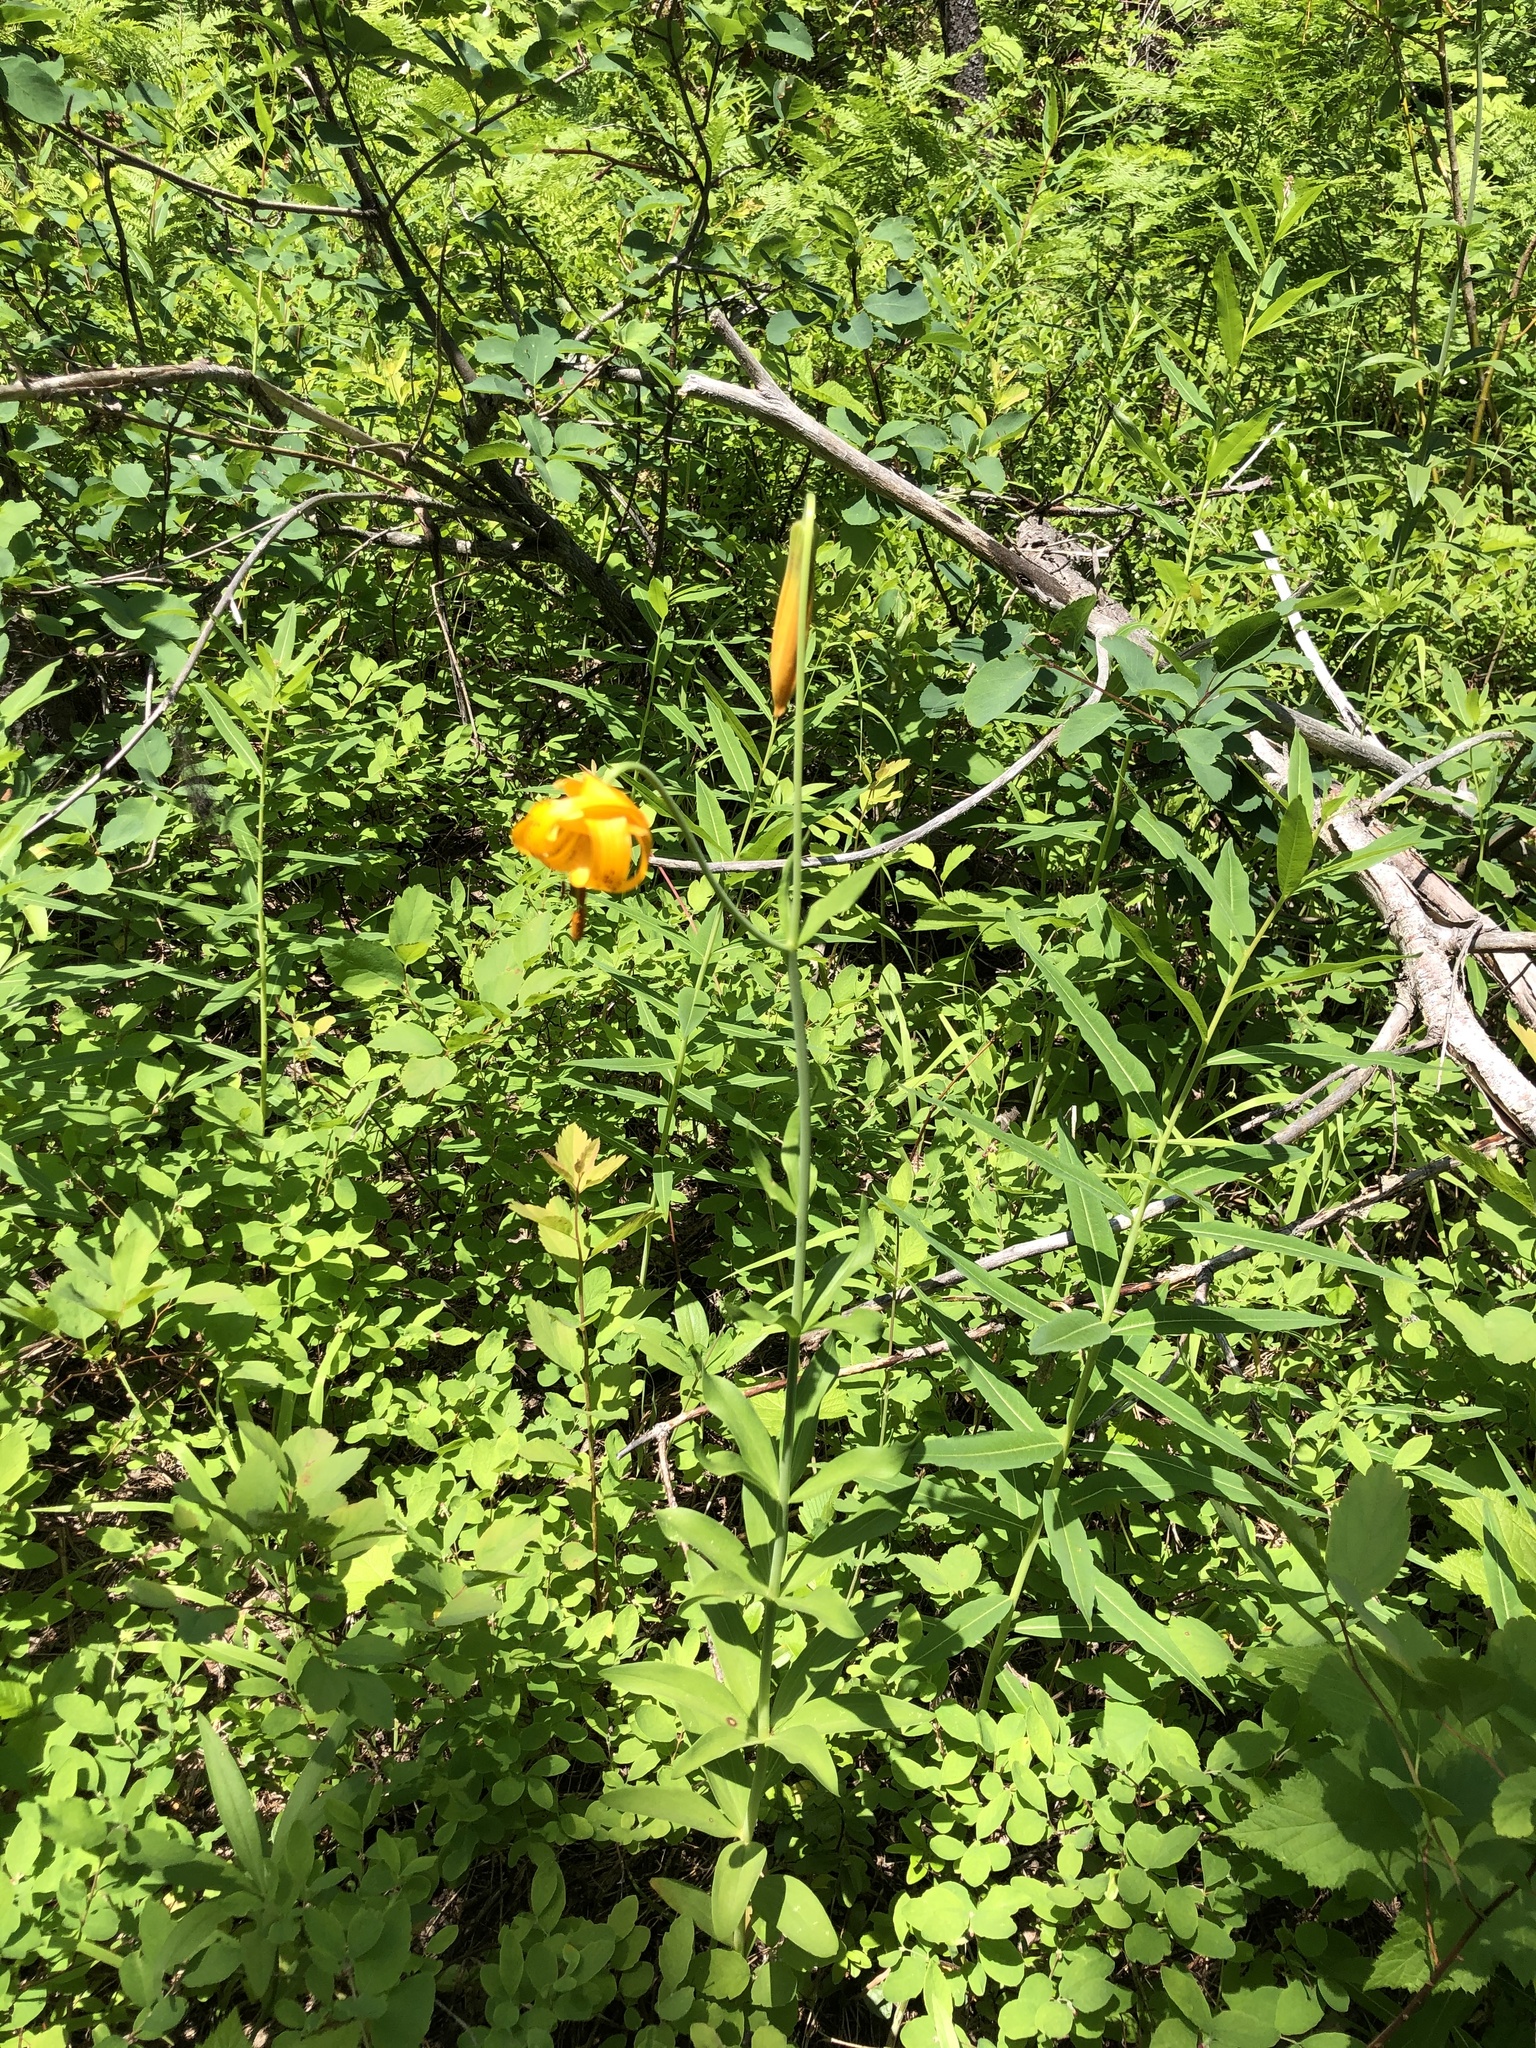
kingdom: Plantae
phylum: Tracheophyta
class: Liliopsida
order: Liliales
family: Liliaceae
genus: Lilium
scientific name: Lilium columbianum
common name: Columbia lily
